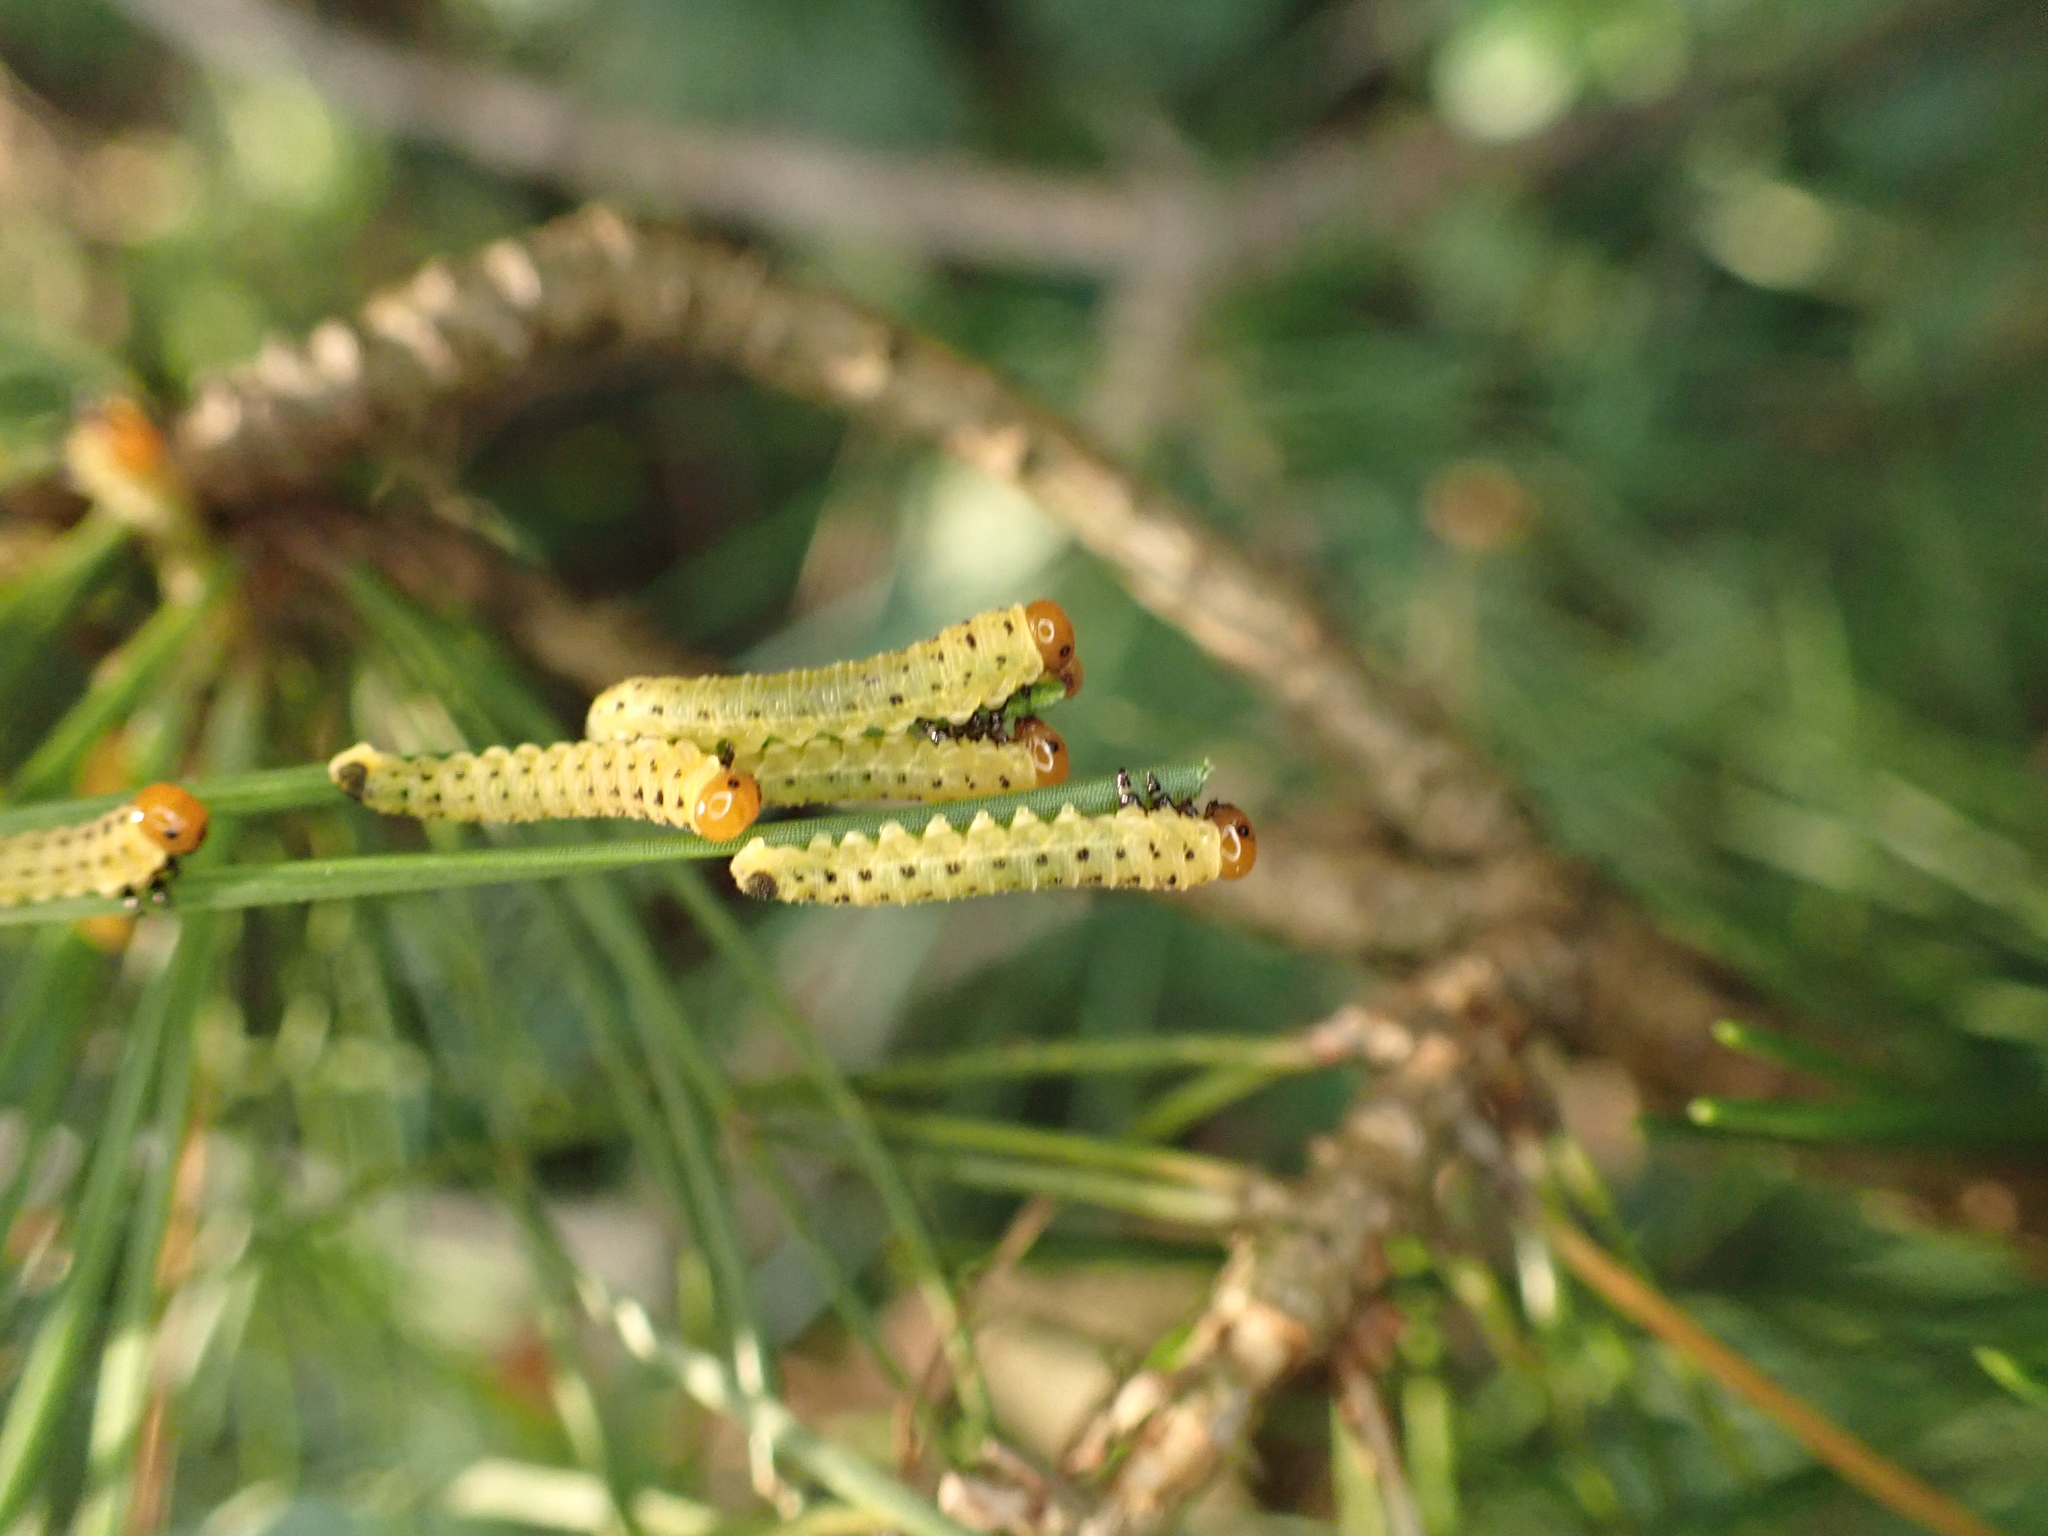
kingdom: Animalia
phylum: Arthropoda
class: Insecta
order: Hymenoptera
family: Diprionidae
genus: Neodiprion
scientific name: Neodiprion lecontei
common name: Redheaded pine sawfly
